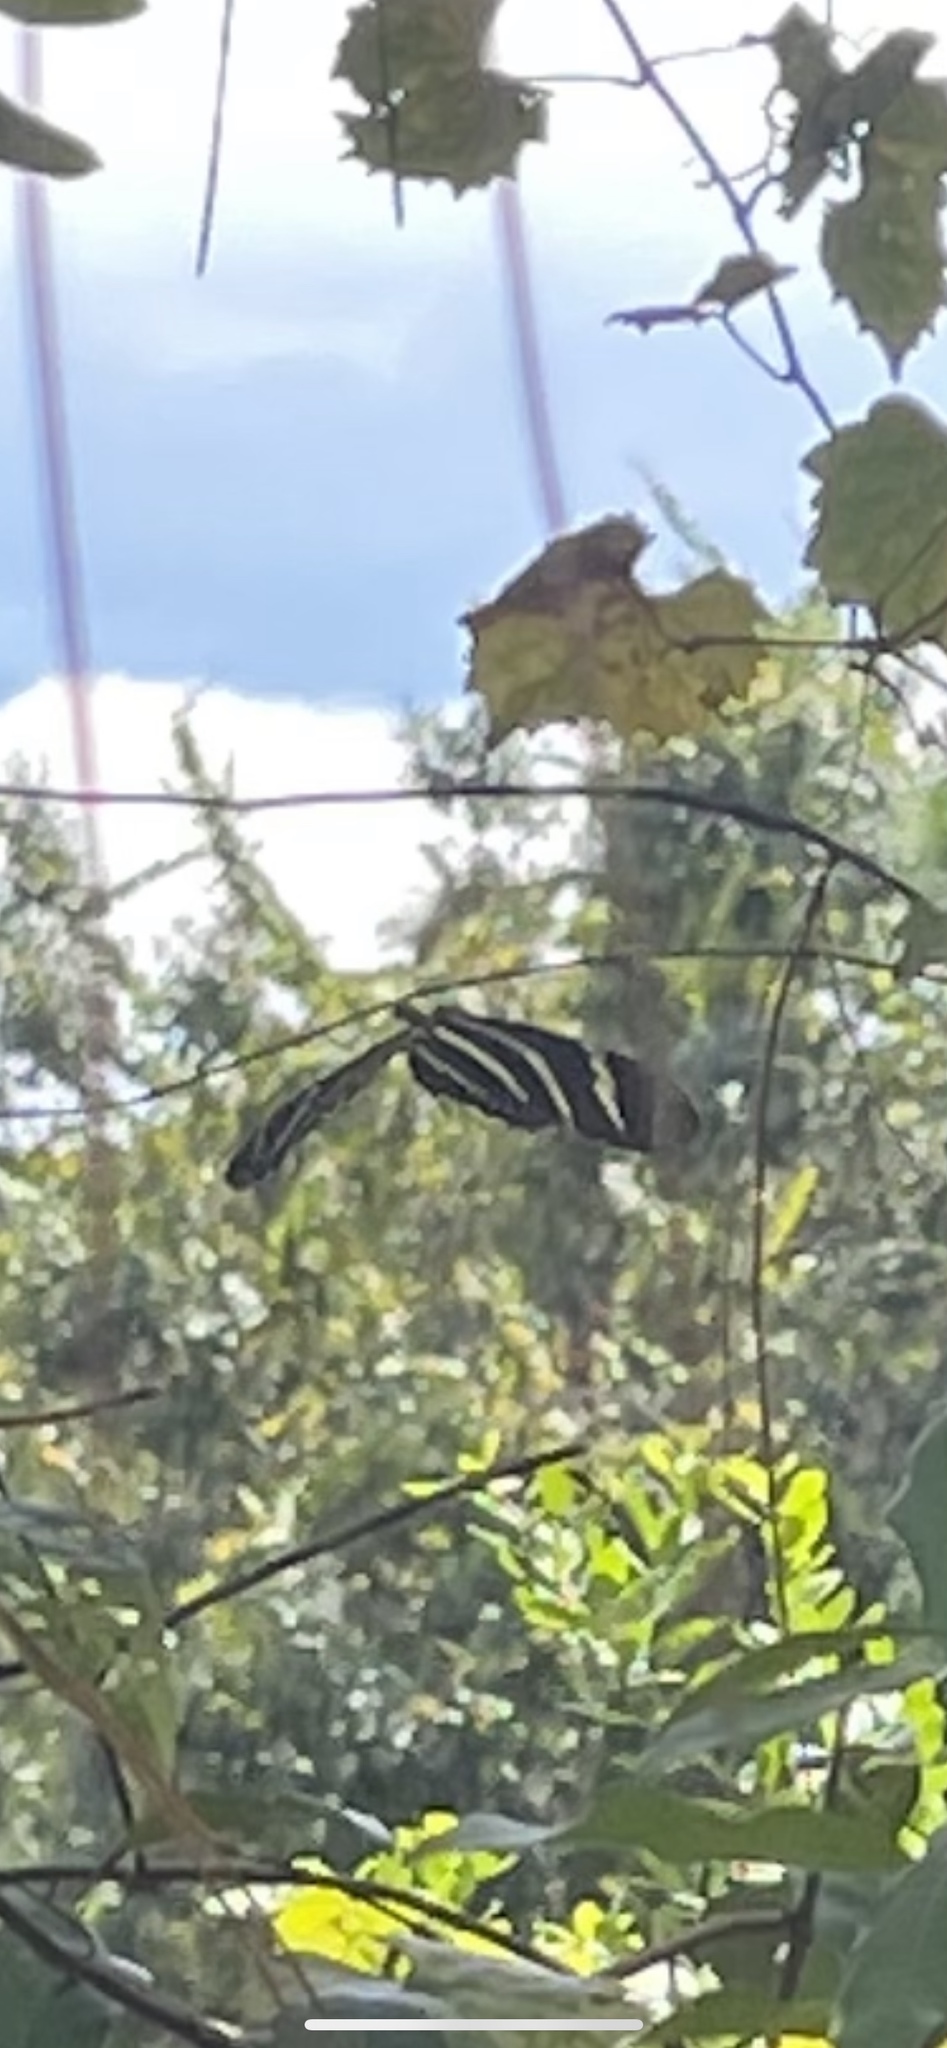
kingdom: Animalia
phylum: Arthropoda
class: Insecta
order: Lepidoptera
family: Nymphalidae
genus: Heliconius
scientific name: Heliconius charithonia
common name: Zebra long wing
